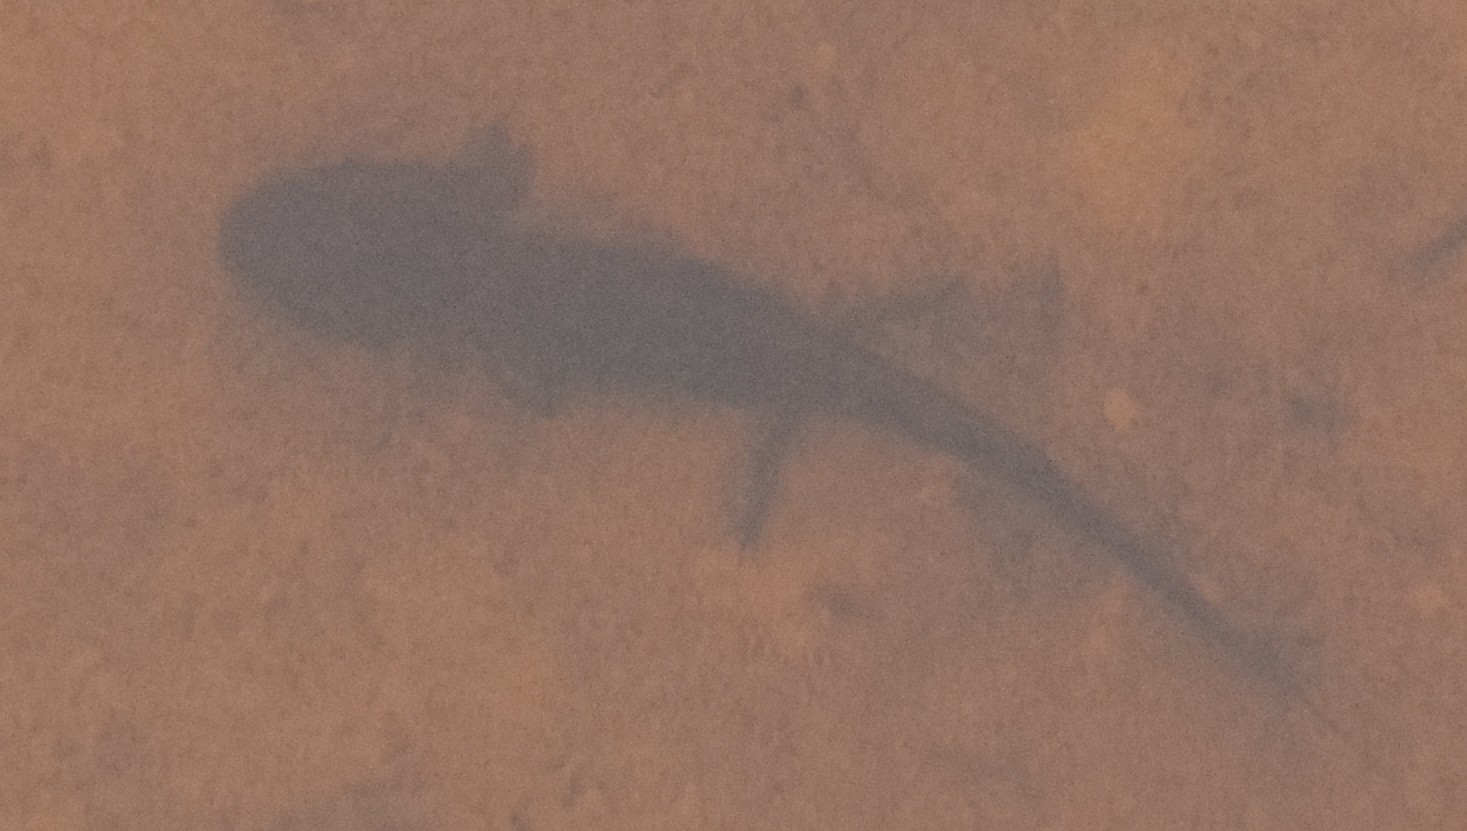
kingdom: Animalia
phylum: Chordata
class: Amphibia
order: Caudata
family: Salamandridae
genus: Ichthyosaura
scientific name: Ichthyosaura alpestris
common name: Alpine newt
